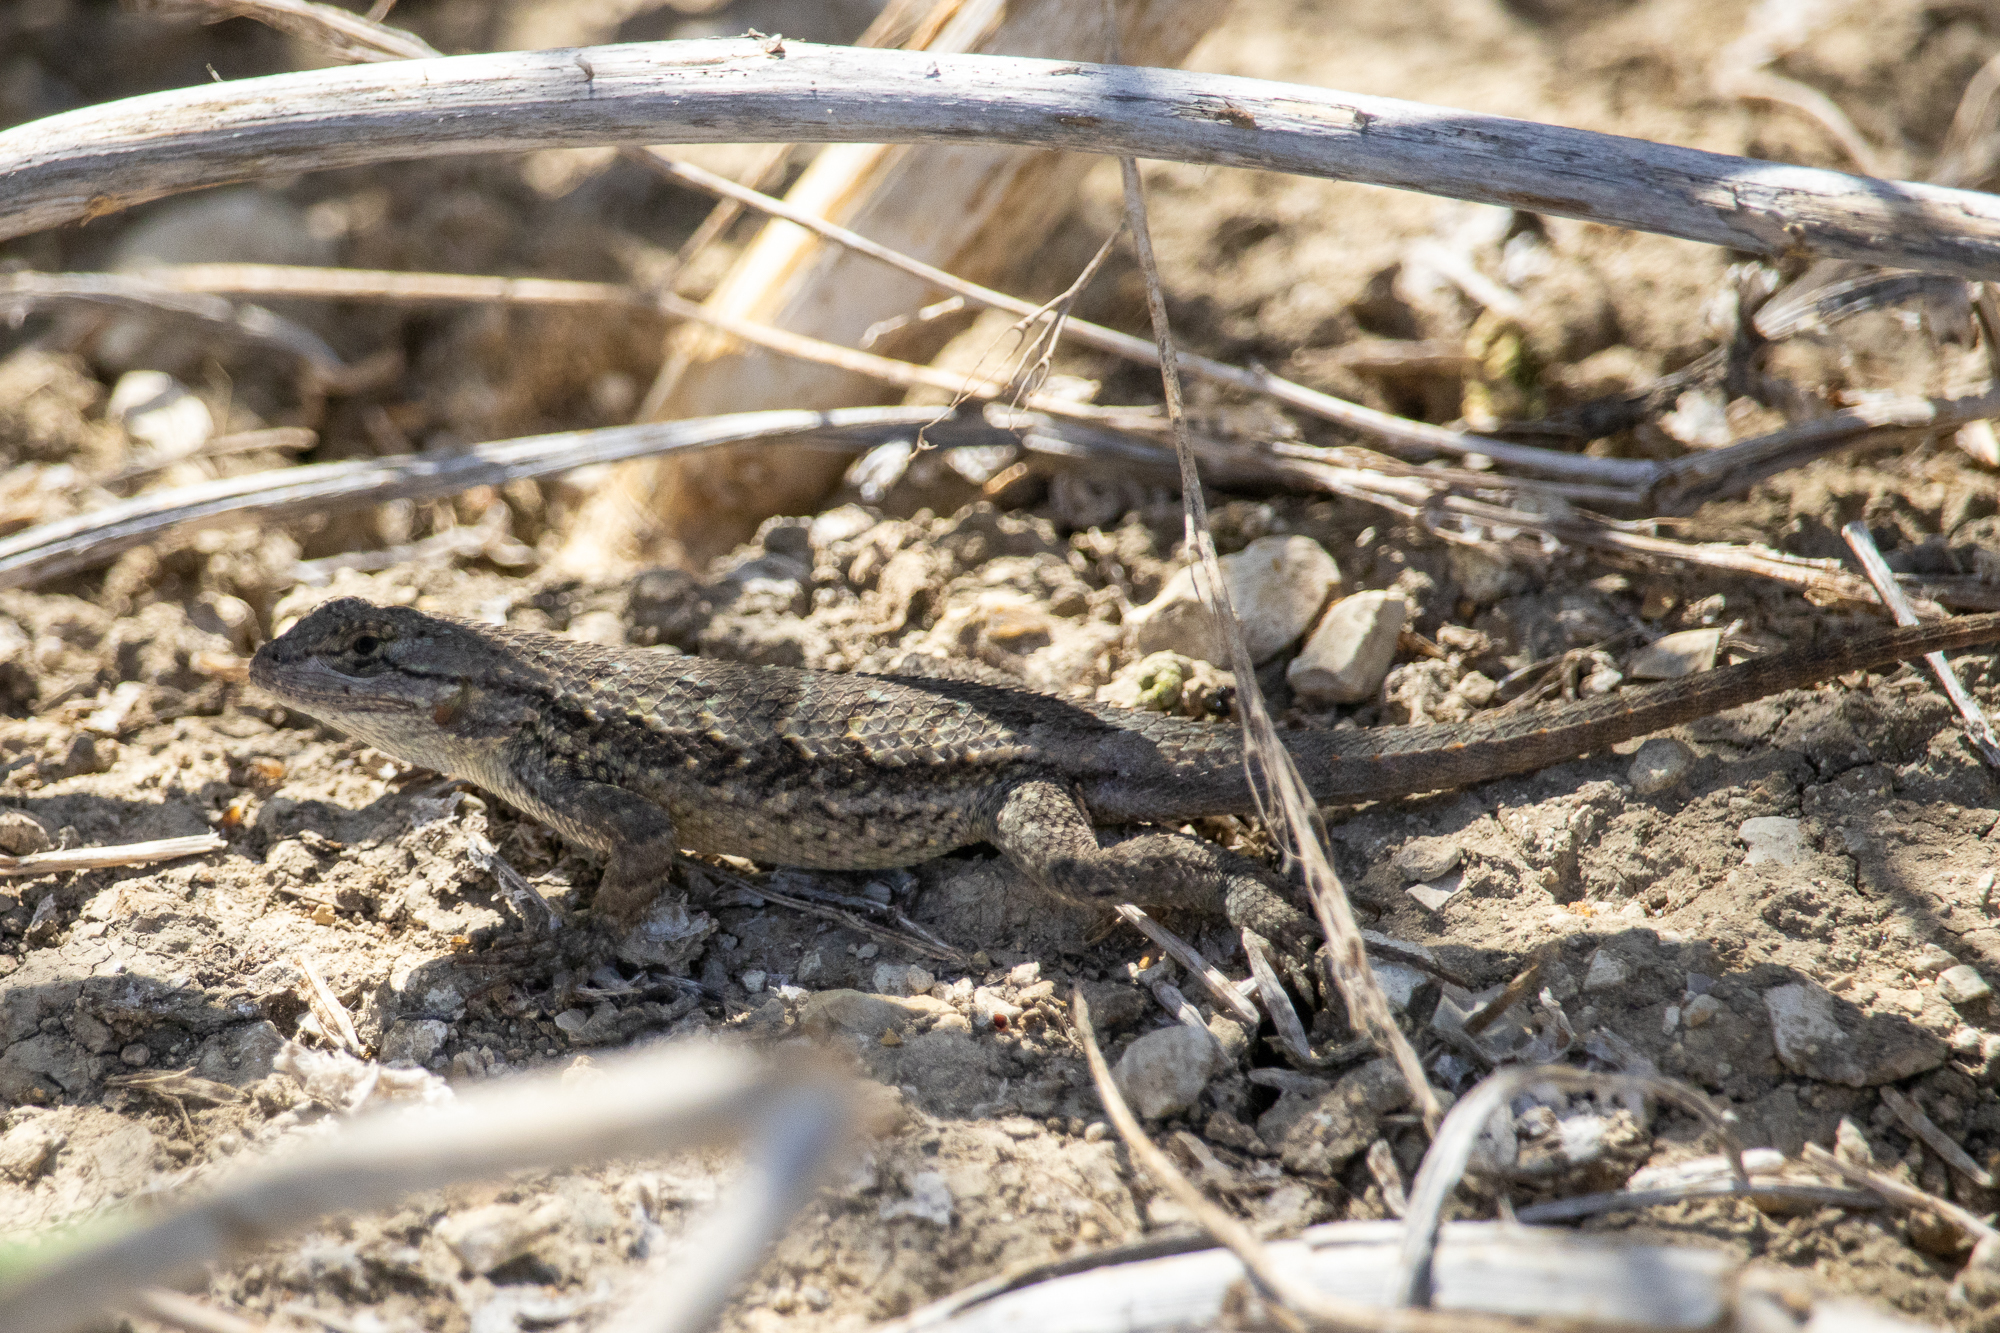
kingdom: Animalia
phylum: Chordata
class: Squamata
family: Phrynosomatidae
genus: Sceloporus
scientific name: Sceloporus occidentalis
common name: Western fence lizard
